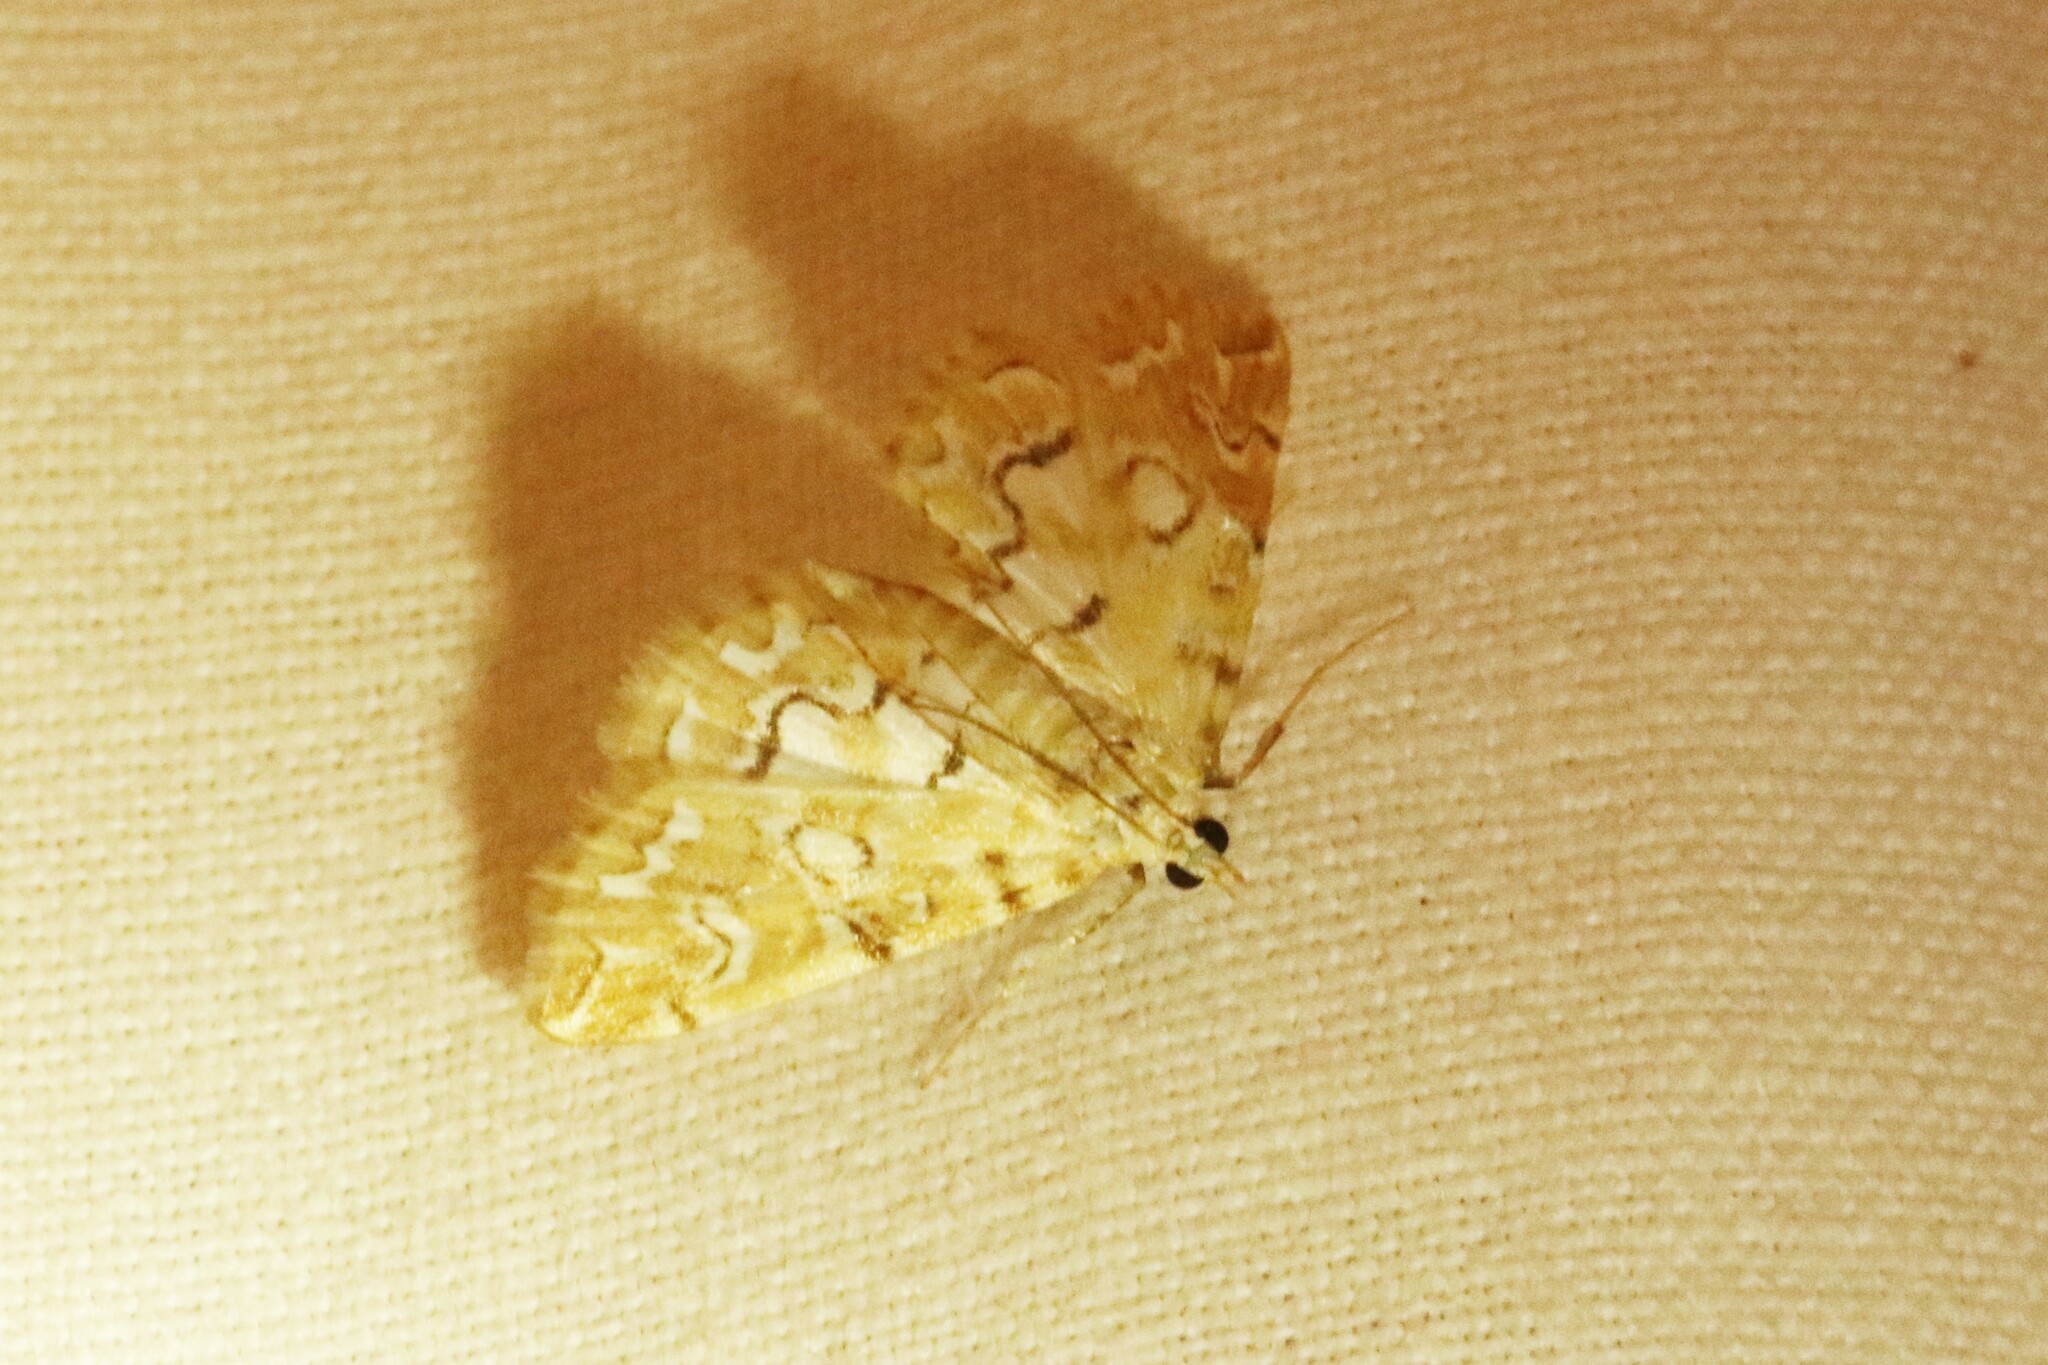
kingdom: Animalia
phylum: Arthropoda
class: Insecta
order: Lepidoptera
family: Crambidae
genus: Elophila
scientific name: Elophila icciusalis
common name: Pondside pyralid moth
